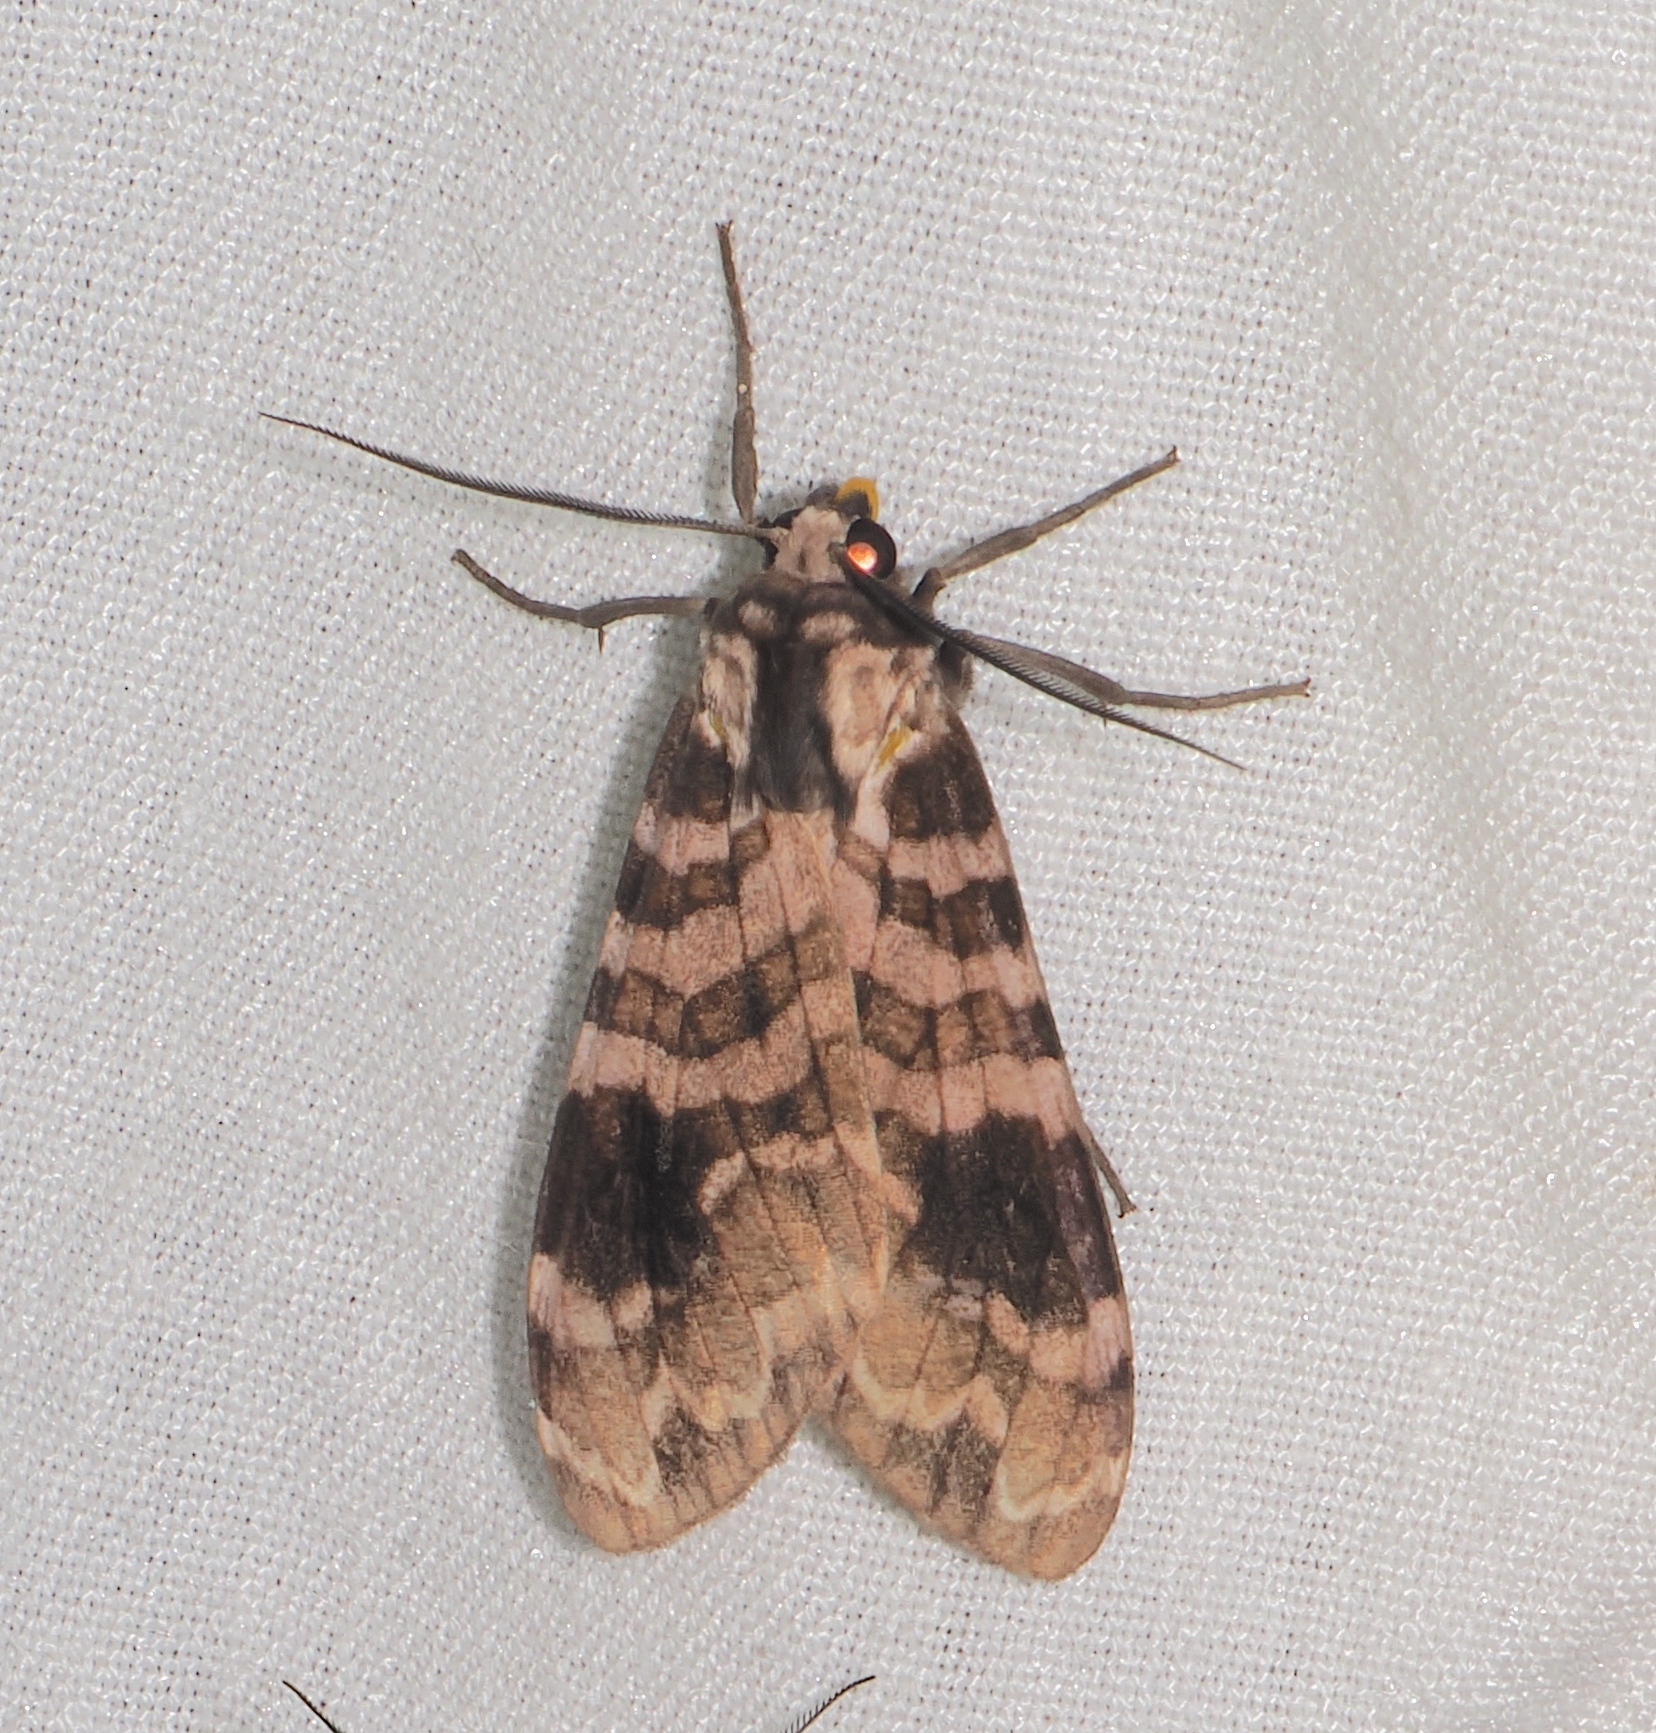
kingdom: Animalia
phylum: Arthropoda
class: Insecta
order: Lepidoptera
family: Erebidae
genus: Elysius
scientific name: Elysius melanoplaga
